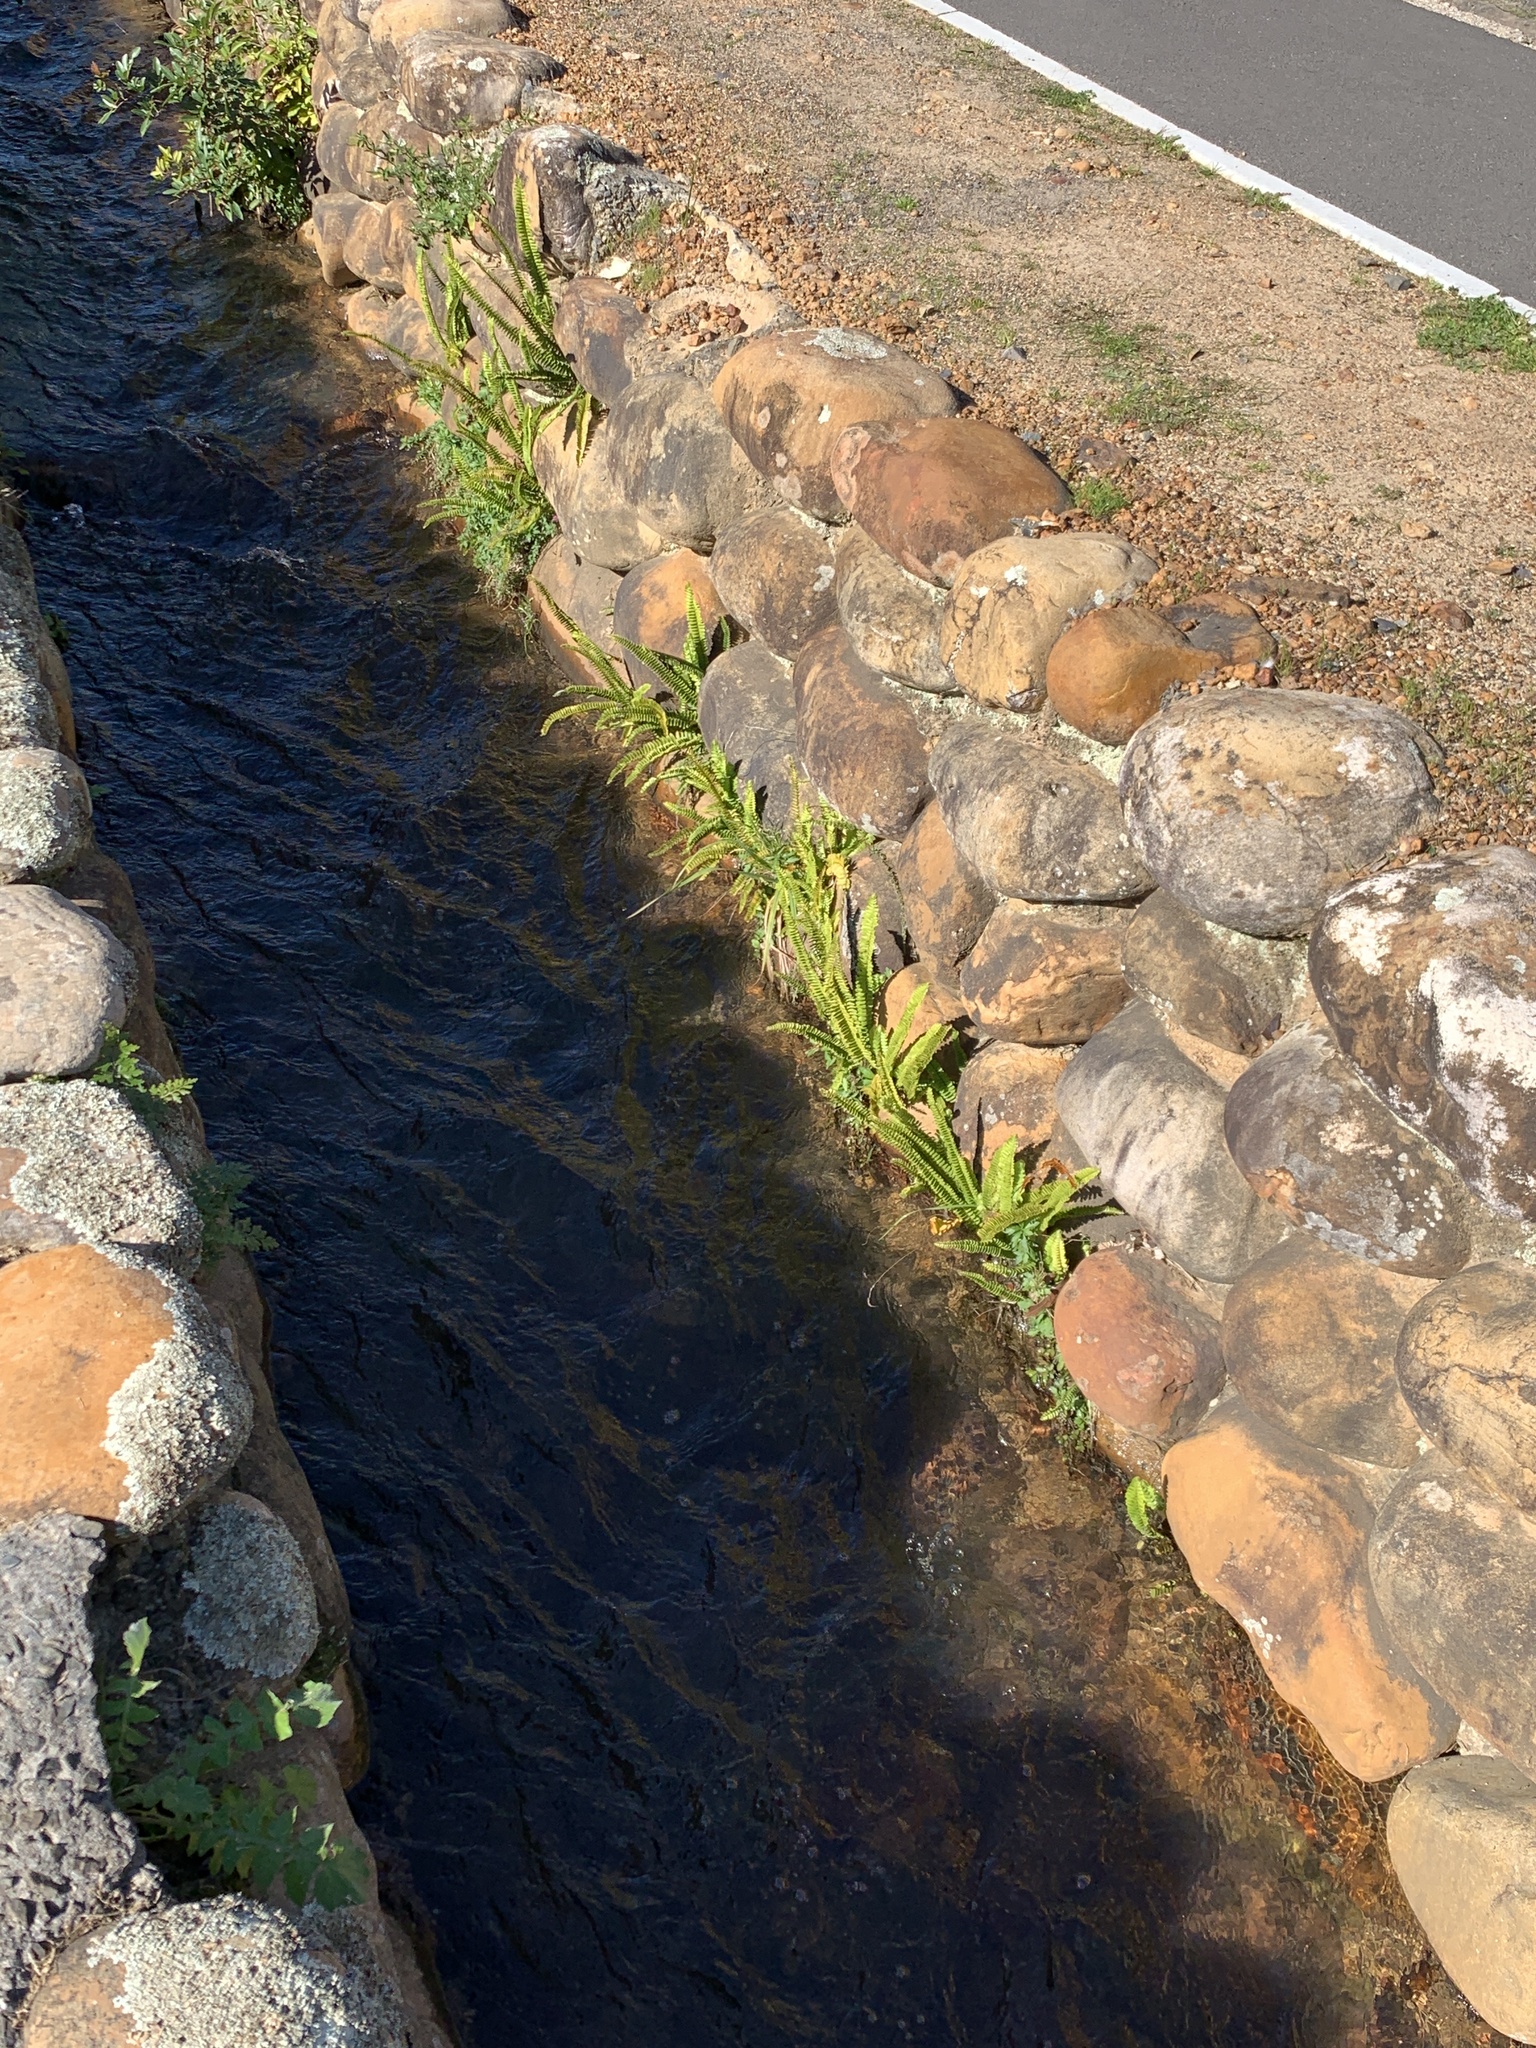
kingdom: Plantae
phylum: Tracheophyta
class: Polypodiopsida
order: Polypodiales
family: Nephrolepidaceae
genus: Nephrolepis
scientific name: Nephrolepis cordifolia
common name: Narrow swordfern
